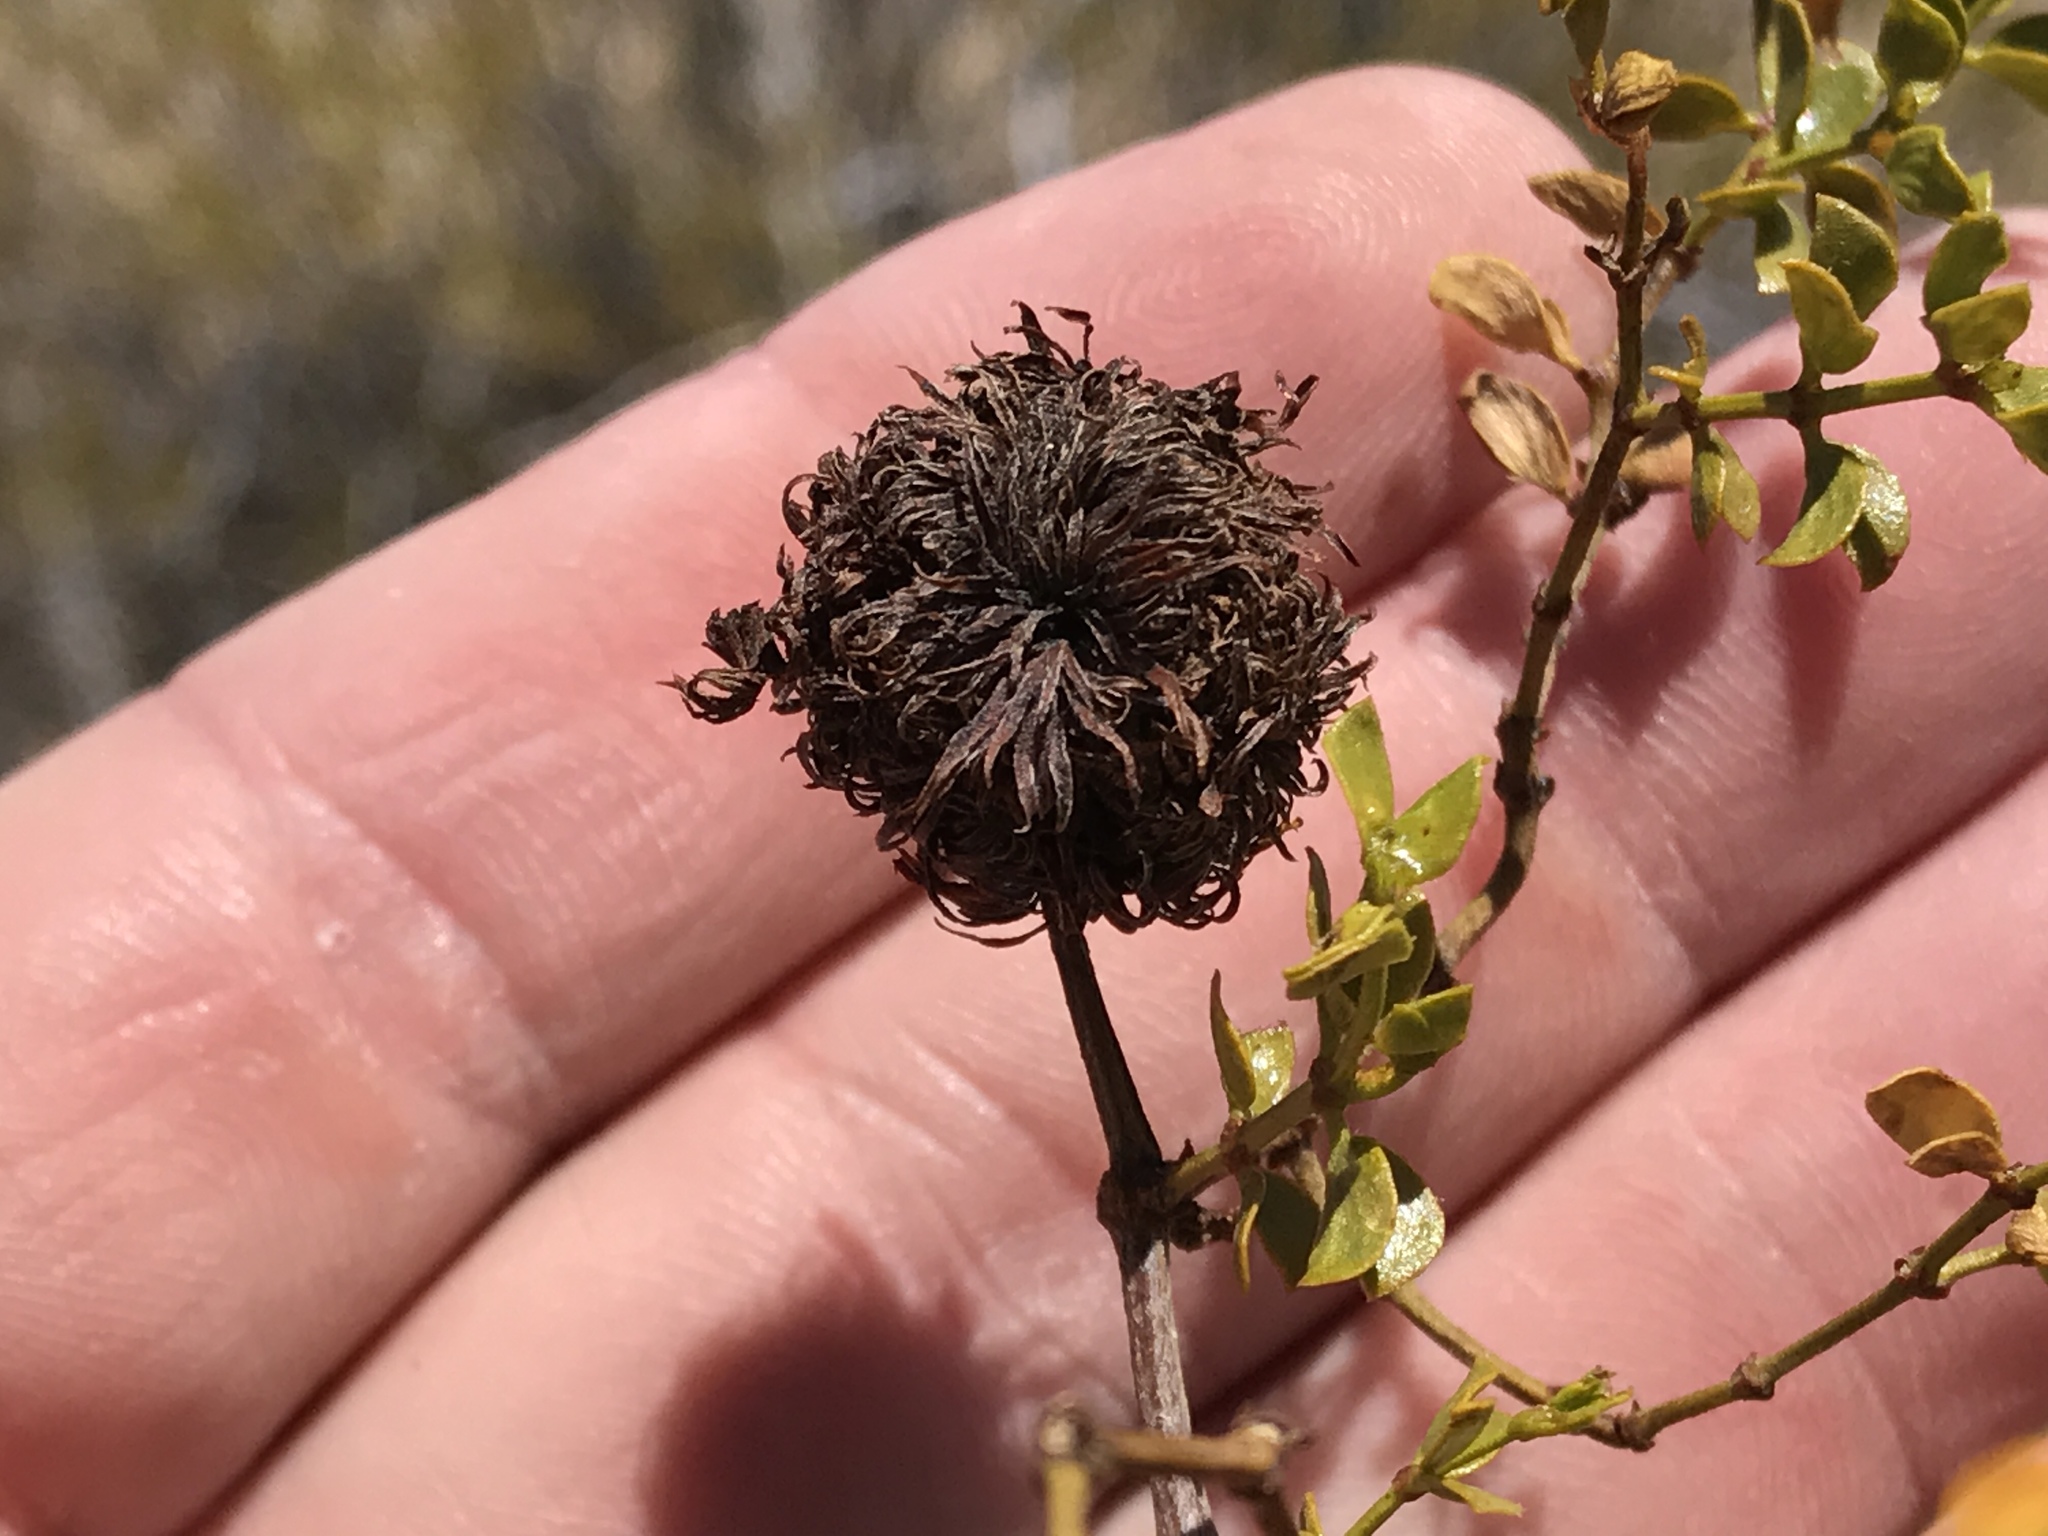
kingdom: Animalia
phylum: Arthropoda
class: Insecta
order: Diptera
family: Cecidomyiidae
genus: Asphondylia
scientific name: Asphondylia auripila
